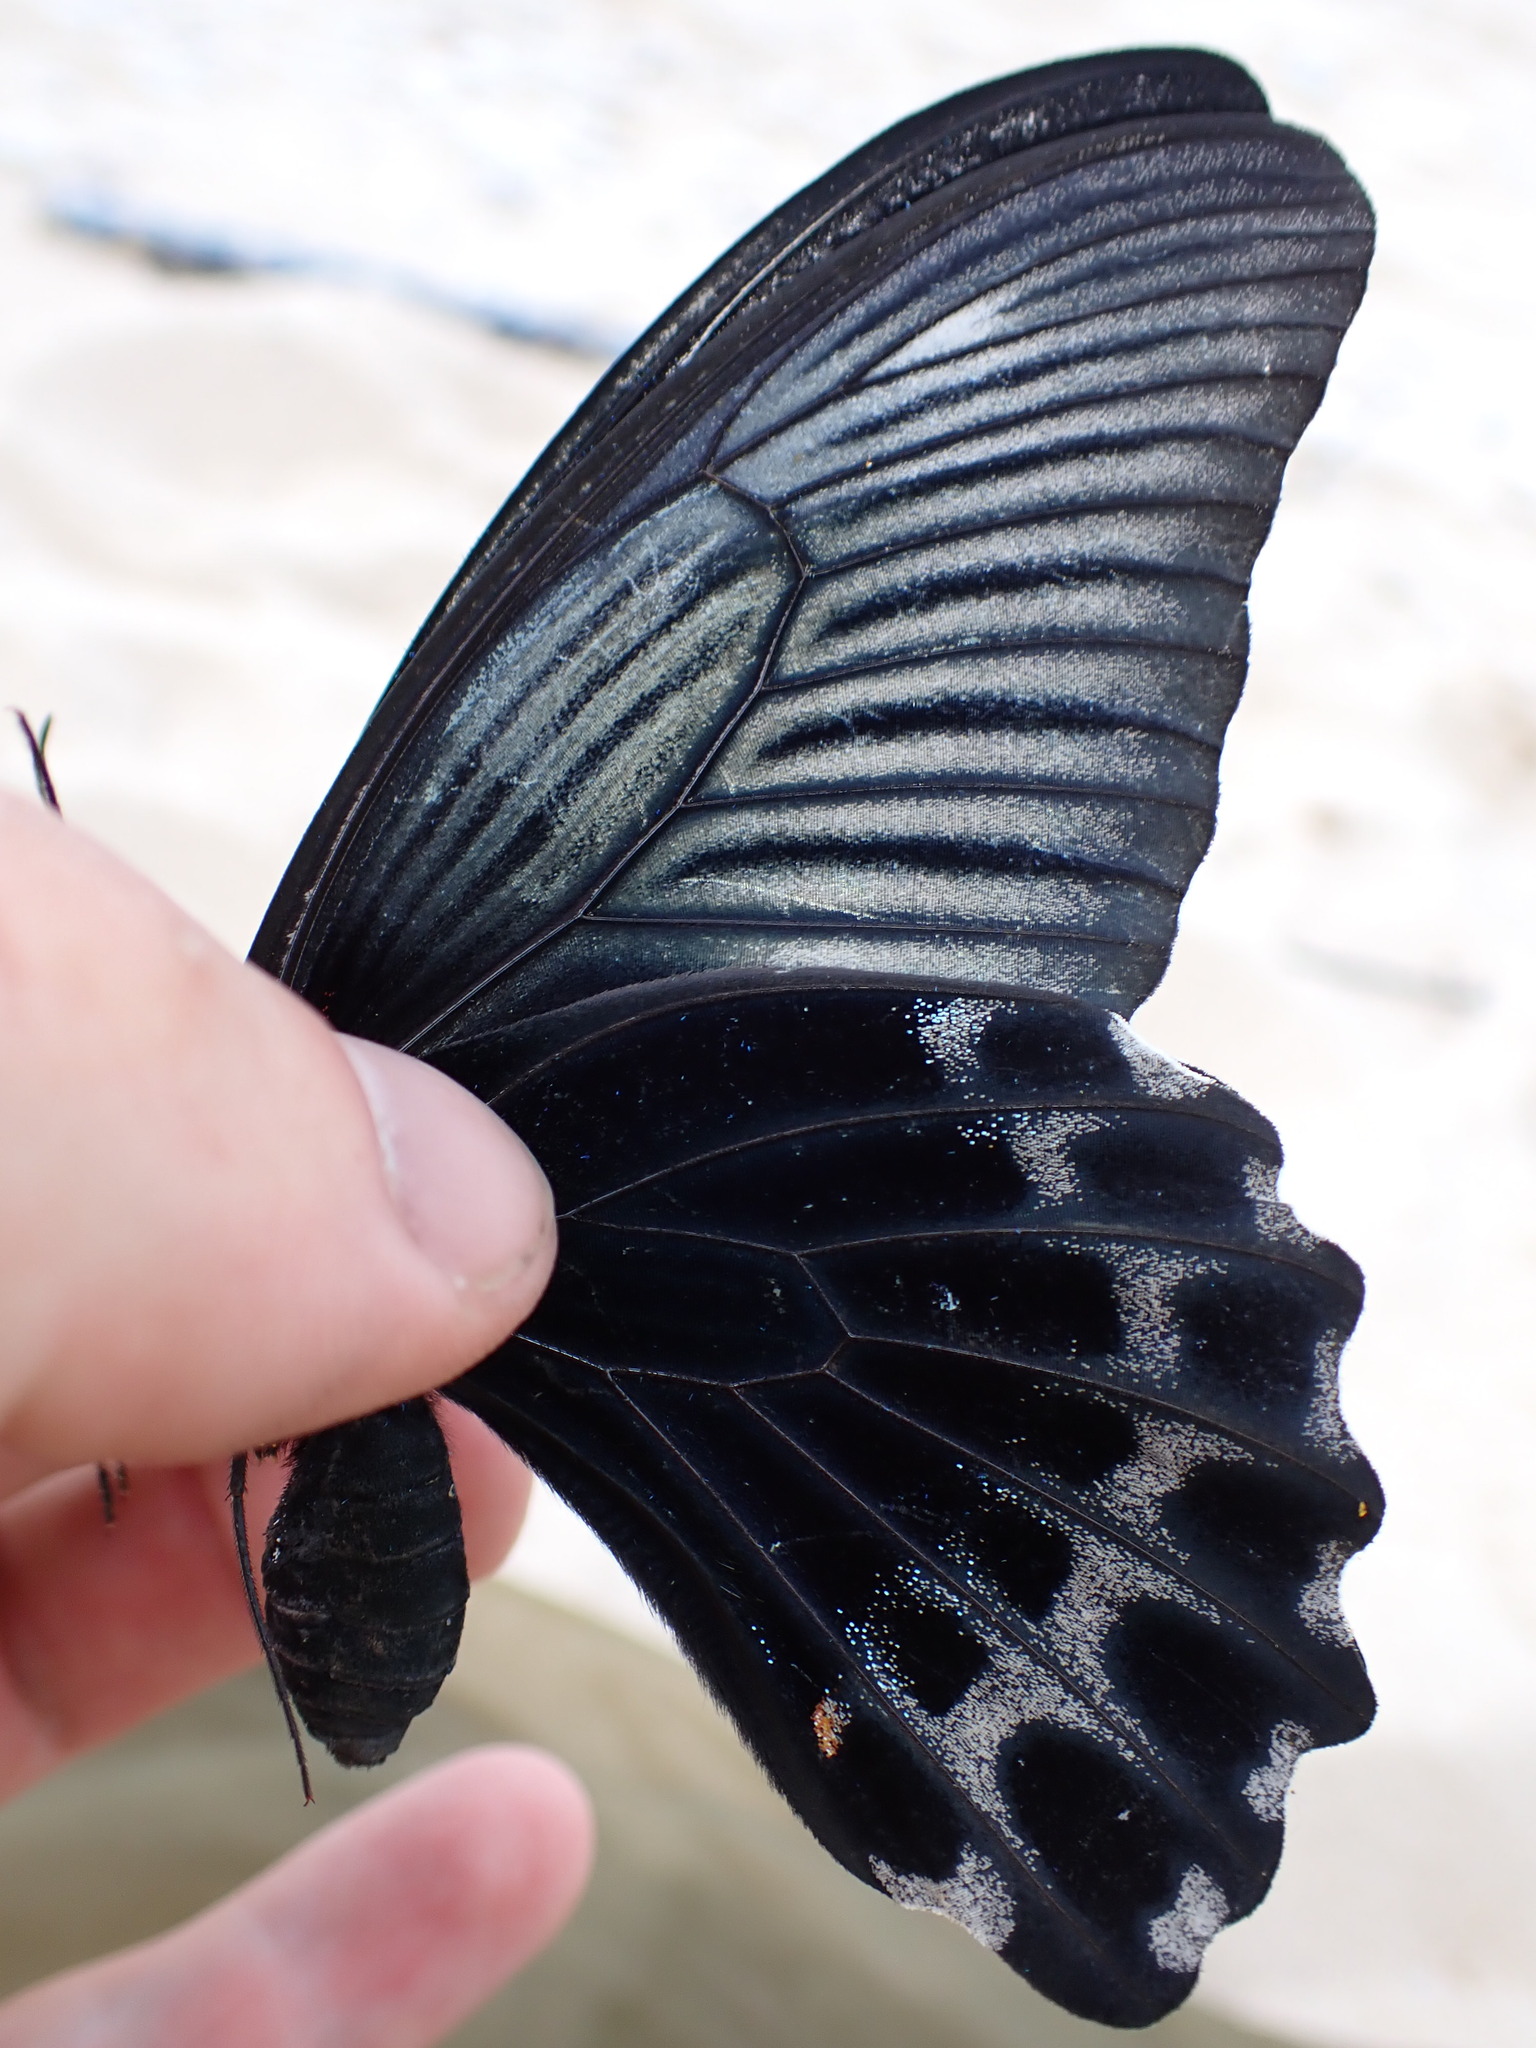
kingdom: Animalia
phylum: Arthropoda
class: Insecta
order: Lepidoptera
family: Papilionidae
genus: Papilio
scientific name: Papilio memnon
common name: Great mormon
